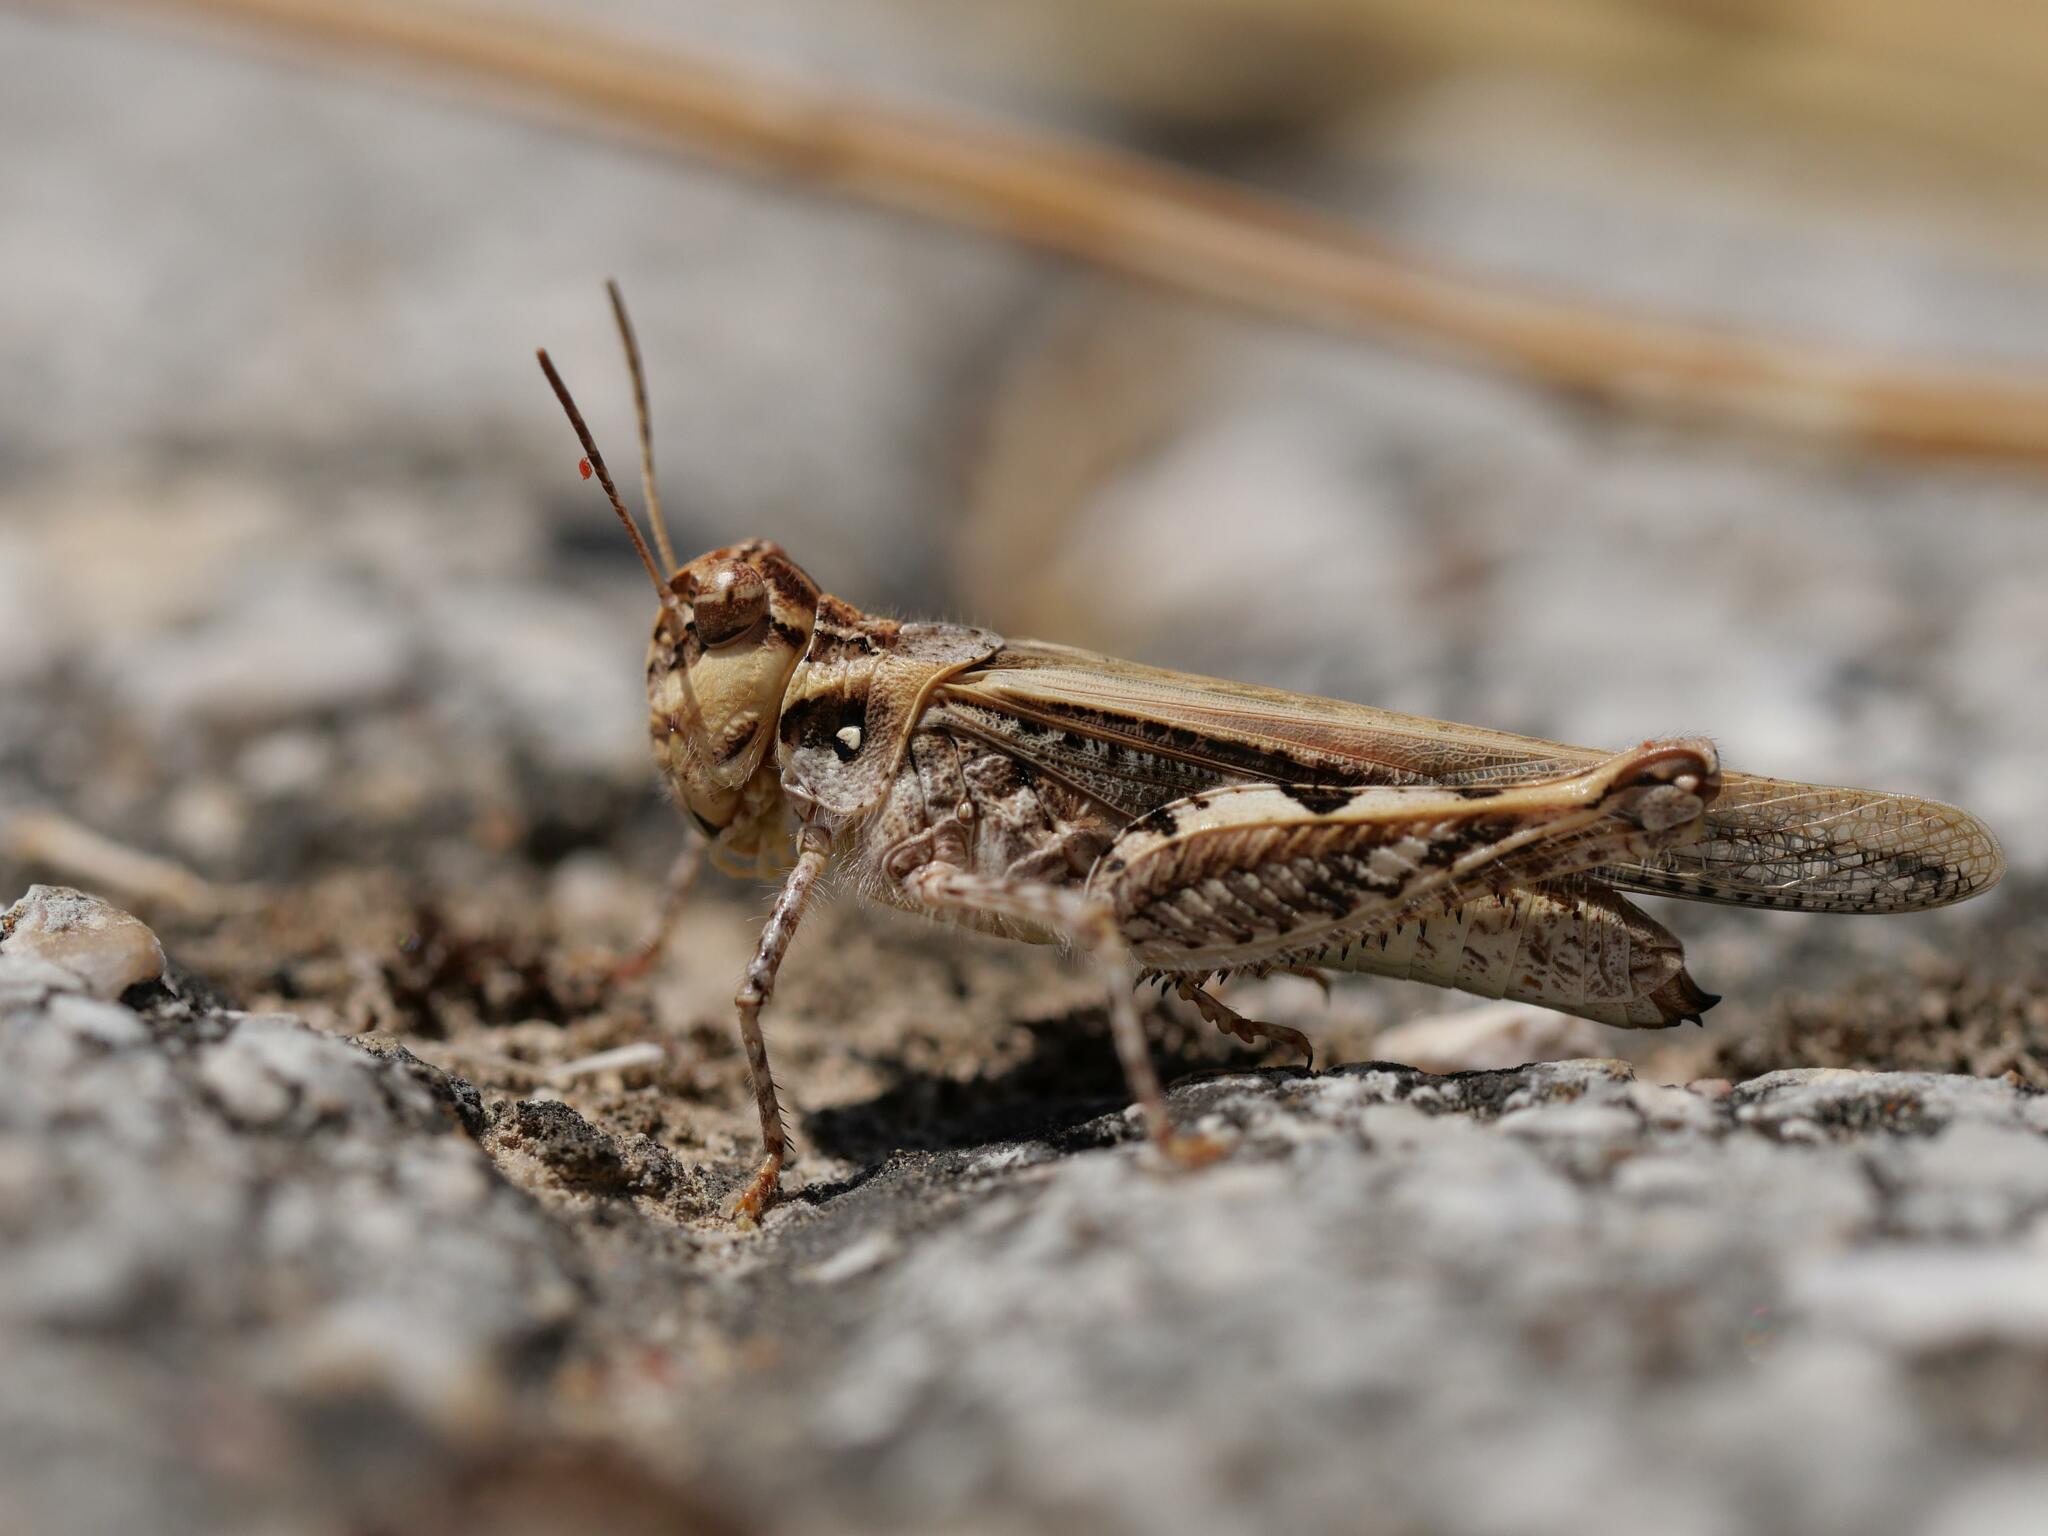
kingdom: Animalia
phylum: Arthropoda
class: Insecta
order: Orthoptera
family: Acrididae
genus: Acrotylus
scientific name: Acrotylus insubricus
